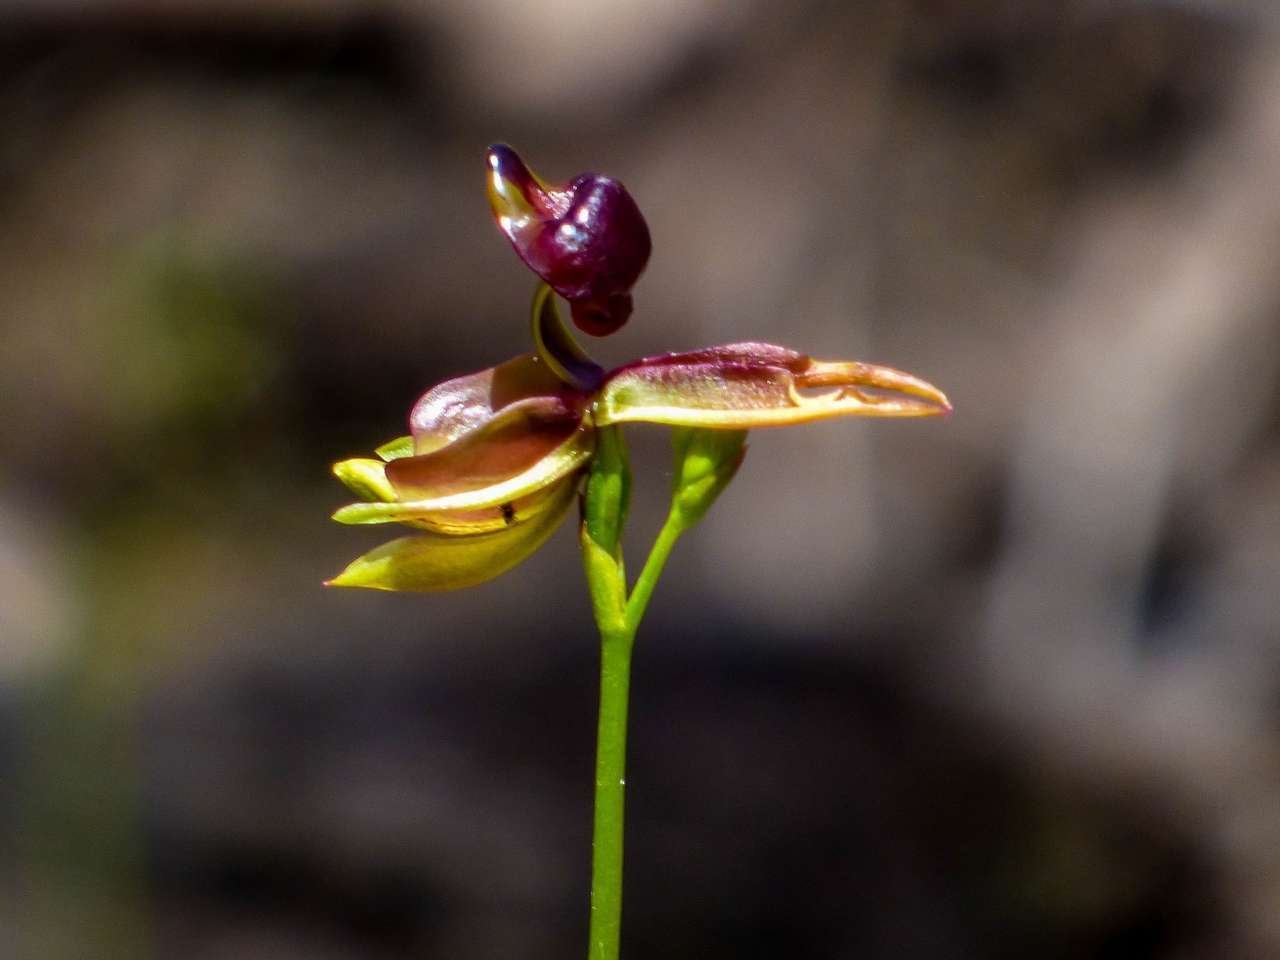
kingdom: Plantae
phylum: Tracheophyta
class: Liliopsida
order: Asparagales
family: Orchidaceae
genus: Caleana
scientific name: Caleana major
